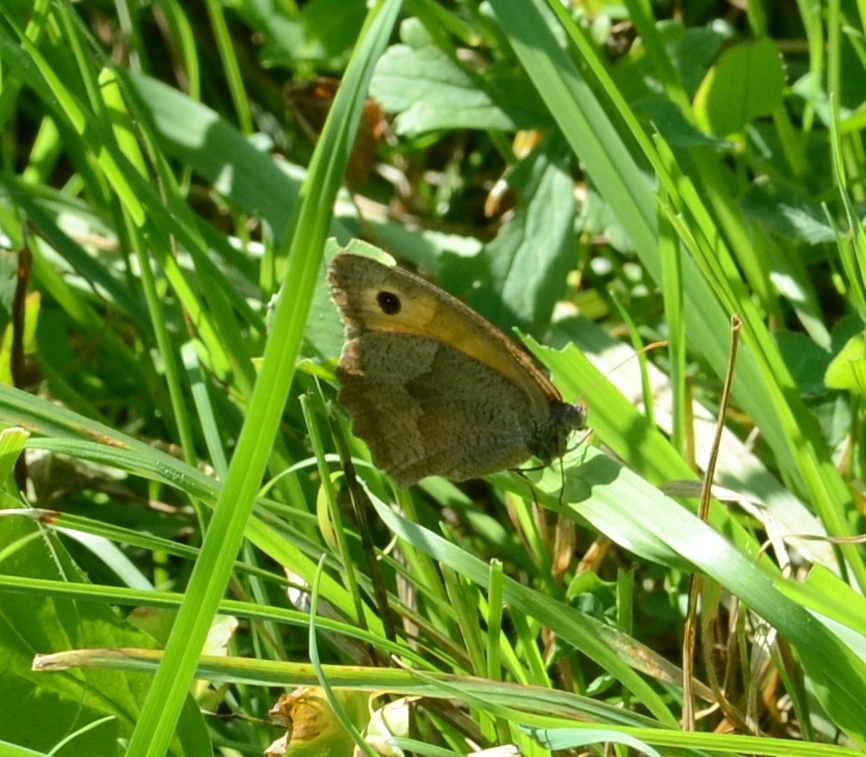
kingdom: Animalia
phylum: Arthropoda
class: Insecta
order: Lepidoptera
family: Nymphalidae
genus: Maniola
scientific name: Maniola jurtina
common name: Meadow brown
